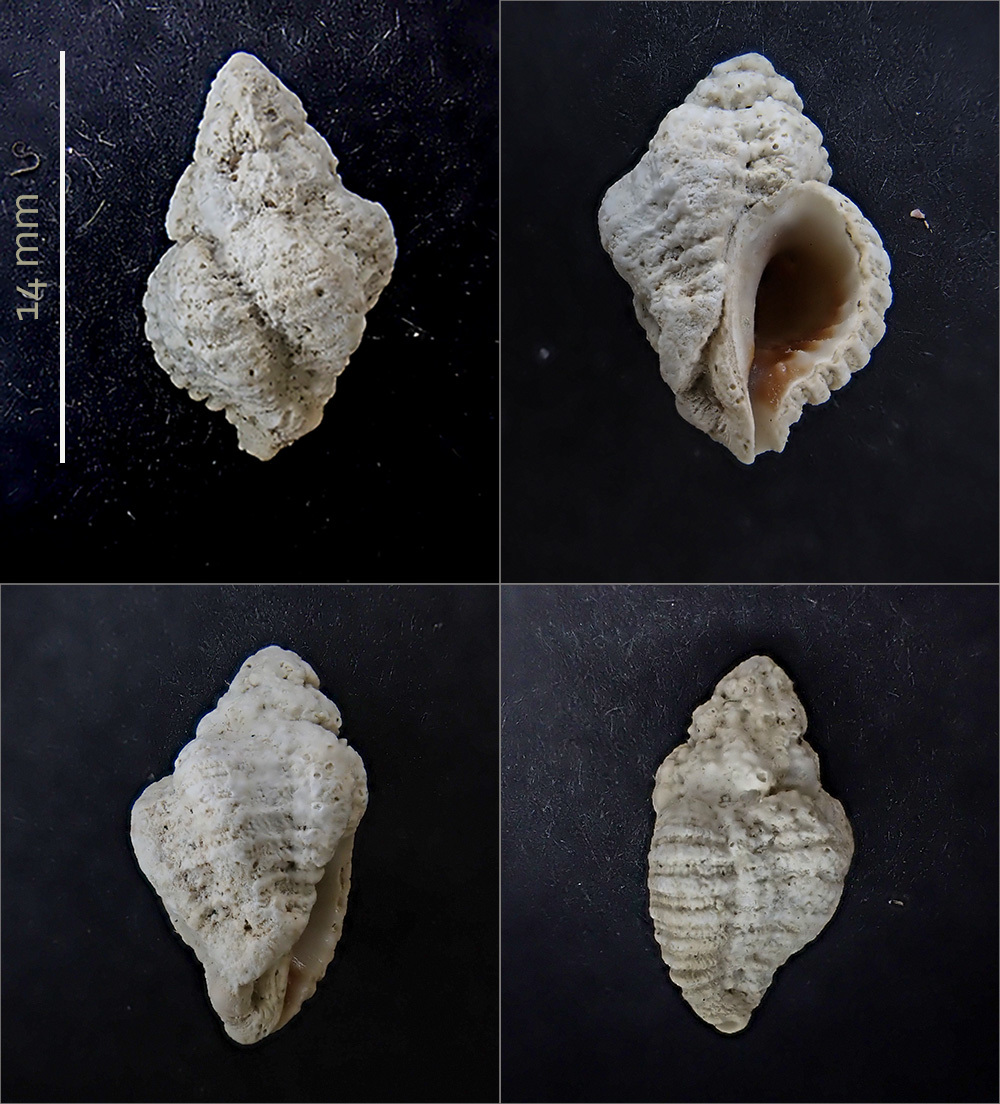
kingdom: Animalia
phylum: Mollusca
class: Gastropoda
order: Neogastropoda
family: Muricidae
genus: Coralliophila
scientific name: Coralliophila meyendorffii
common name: Lamellose coral shell
